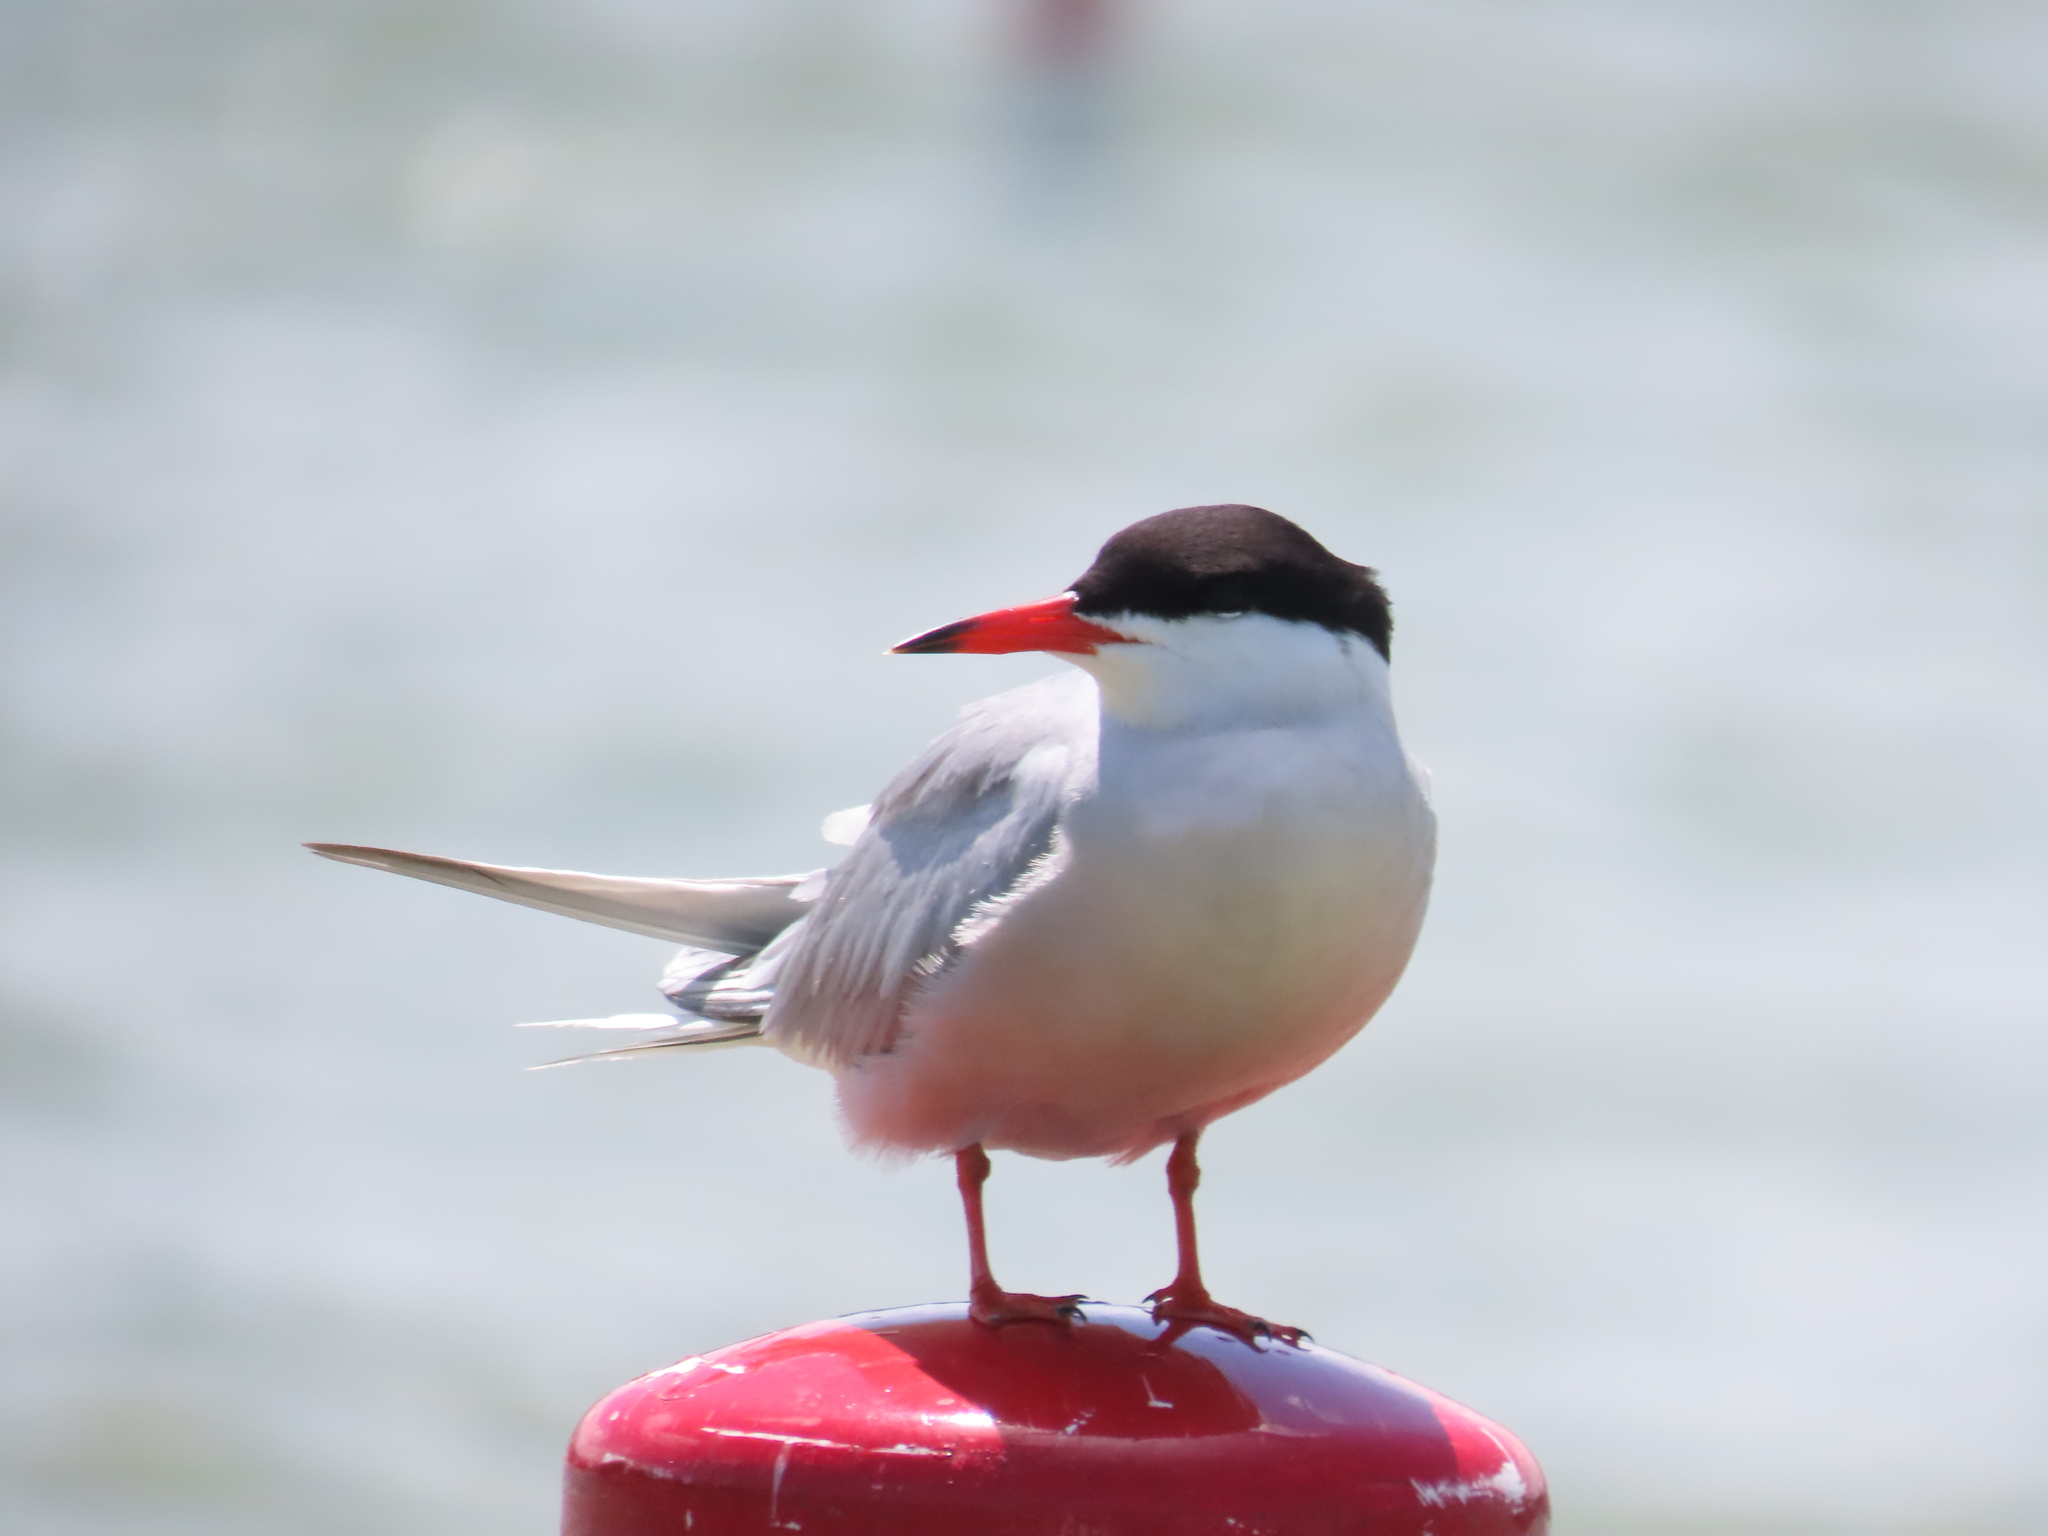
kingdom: Animalia
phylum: Chordata
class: Aves
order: Charadriiformes
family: Laridae
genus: Sterna
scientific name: Sterna hirundo
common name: Common tern
